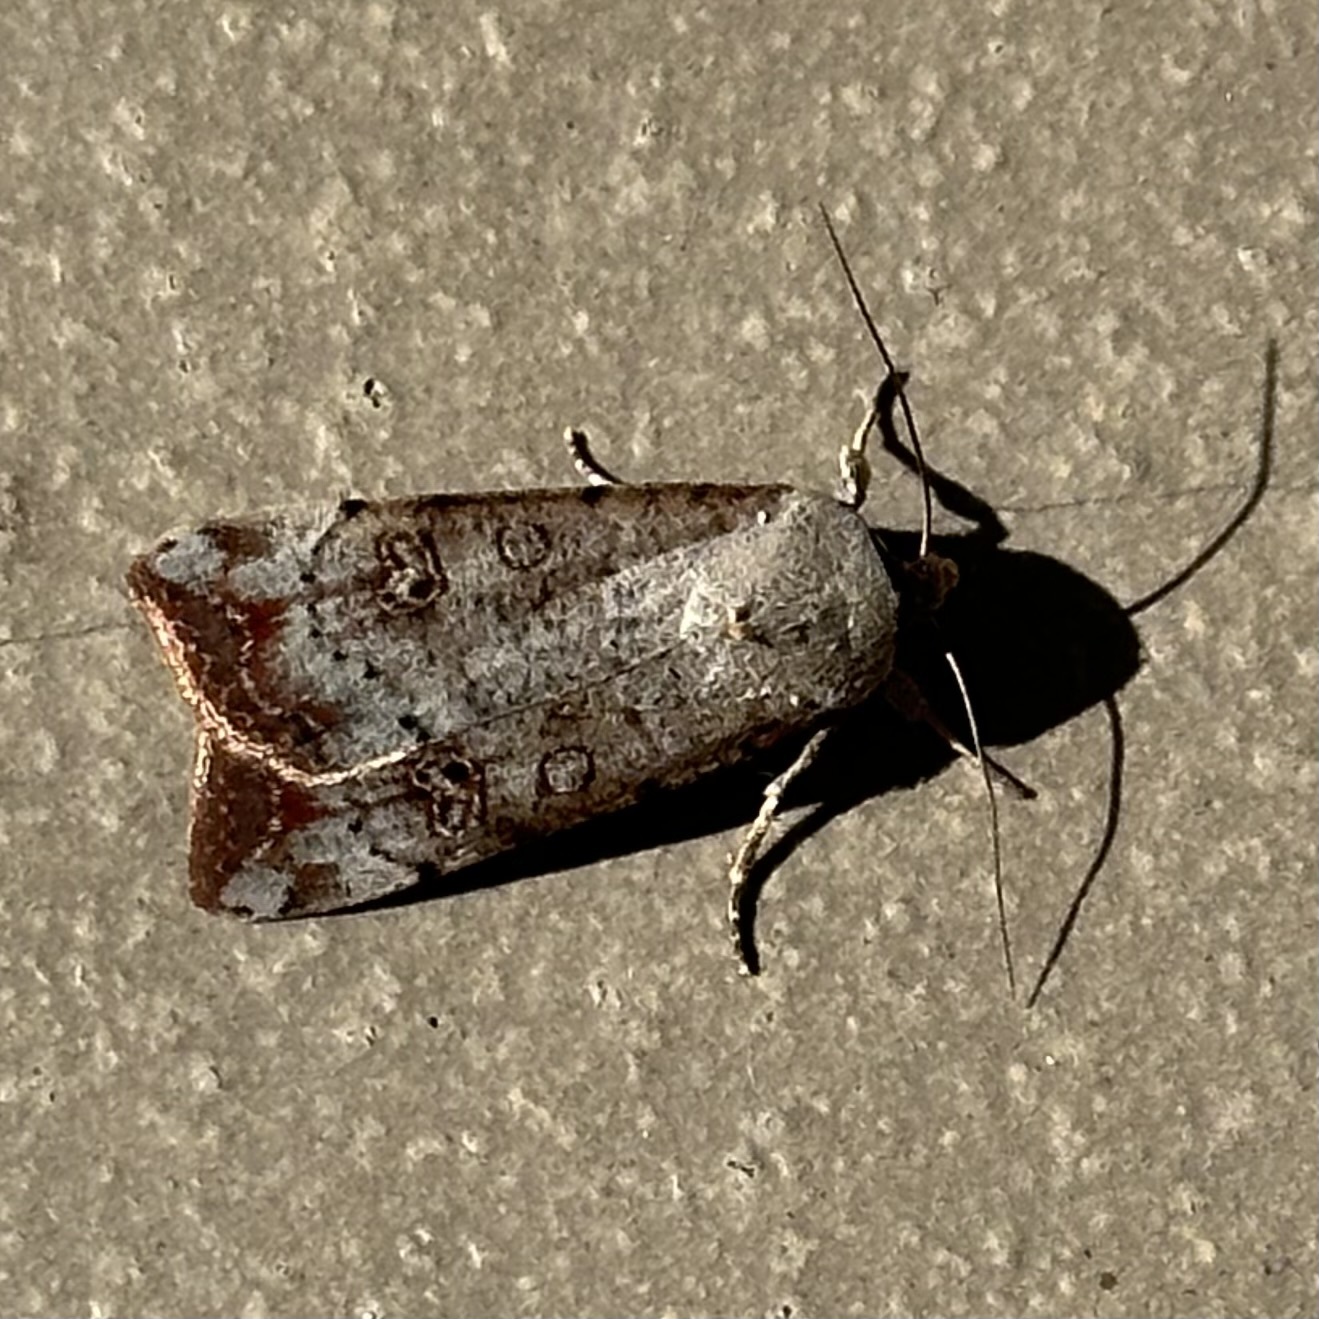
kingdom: Animalia
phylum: Arthropoda
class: Insecta
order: Lepidoptera
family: Noctuidae
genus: Anicla
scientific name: Anicla infecta
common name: Green cutworm
